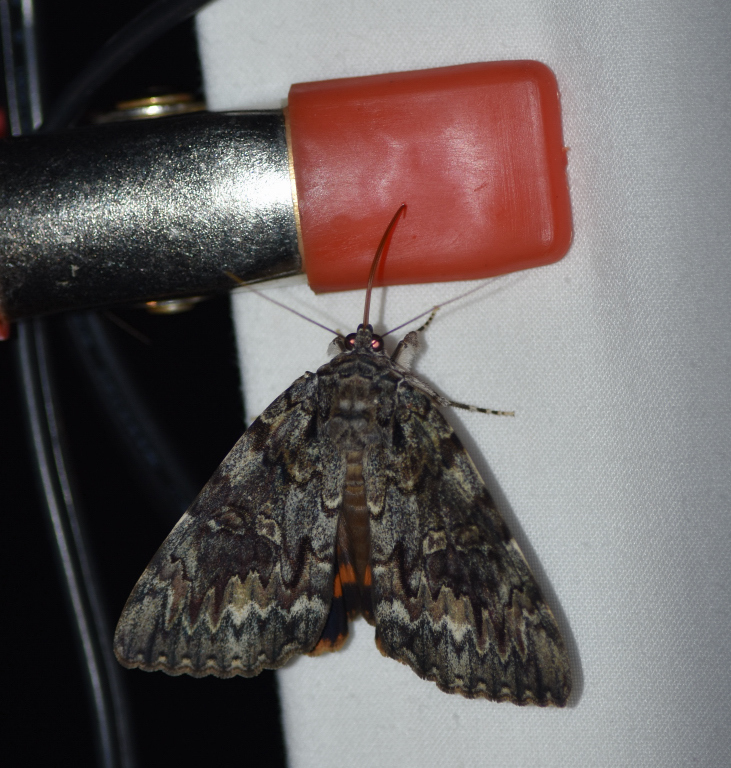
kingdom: Animalia
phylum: Arthropoda
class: Insecta
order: Lepidoptera
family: Erebidae
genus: Catocala
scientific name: Catocala palaeogama
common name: Oldwife underwing
